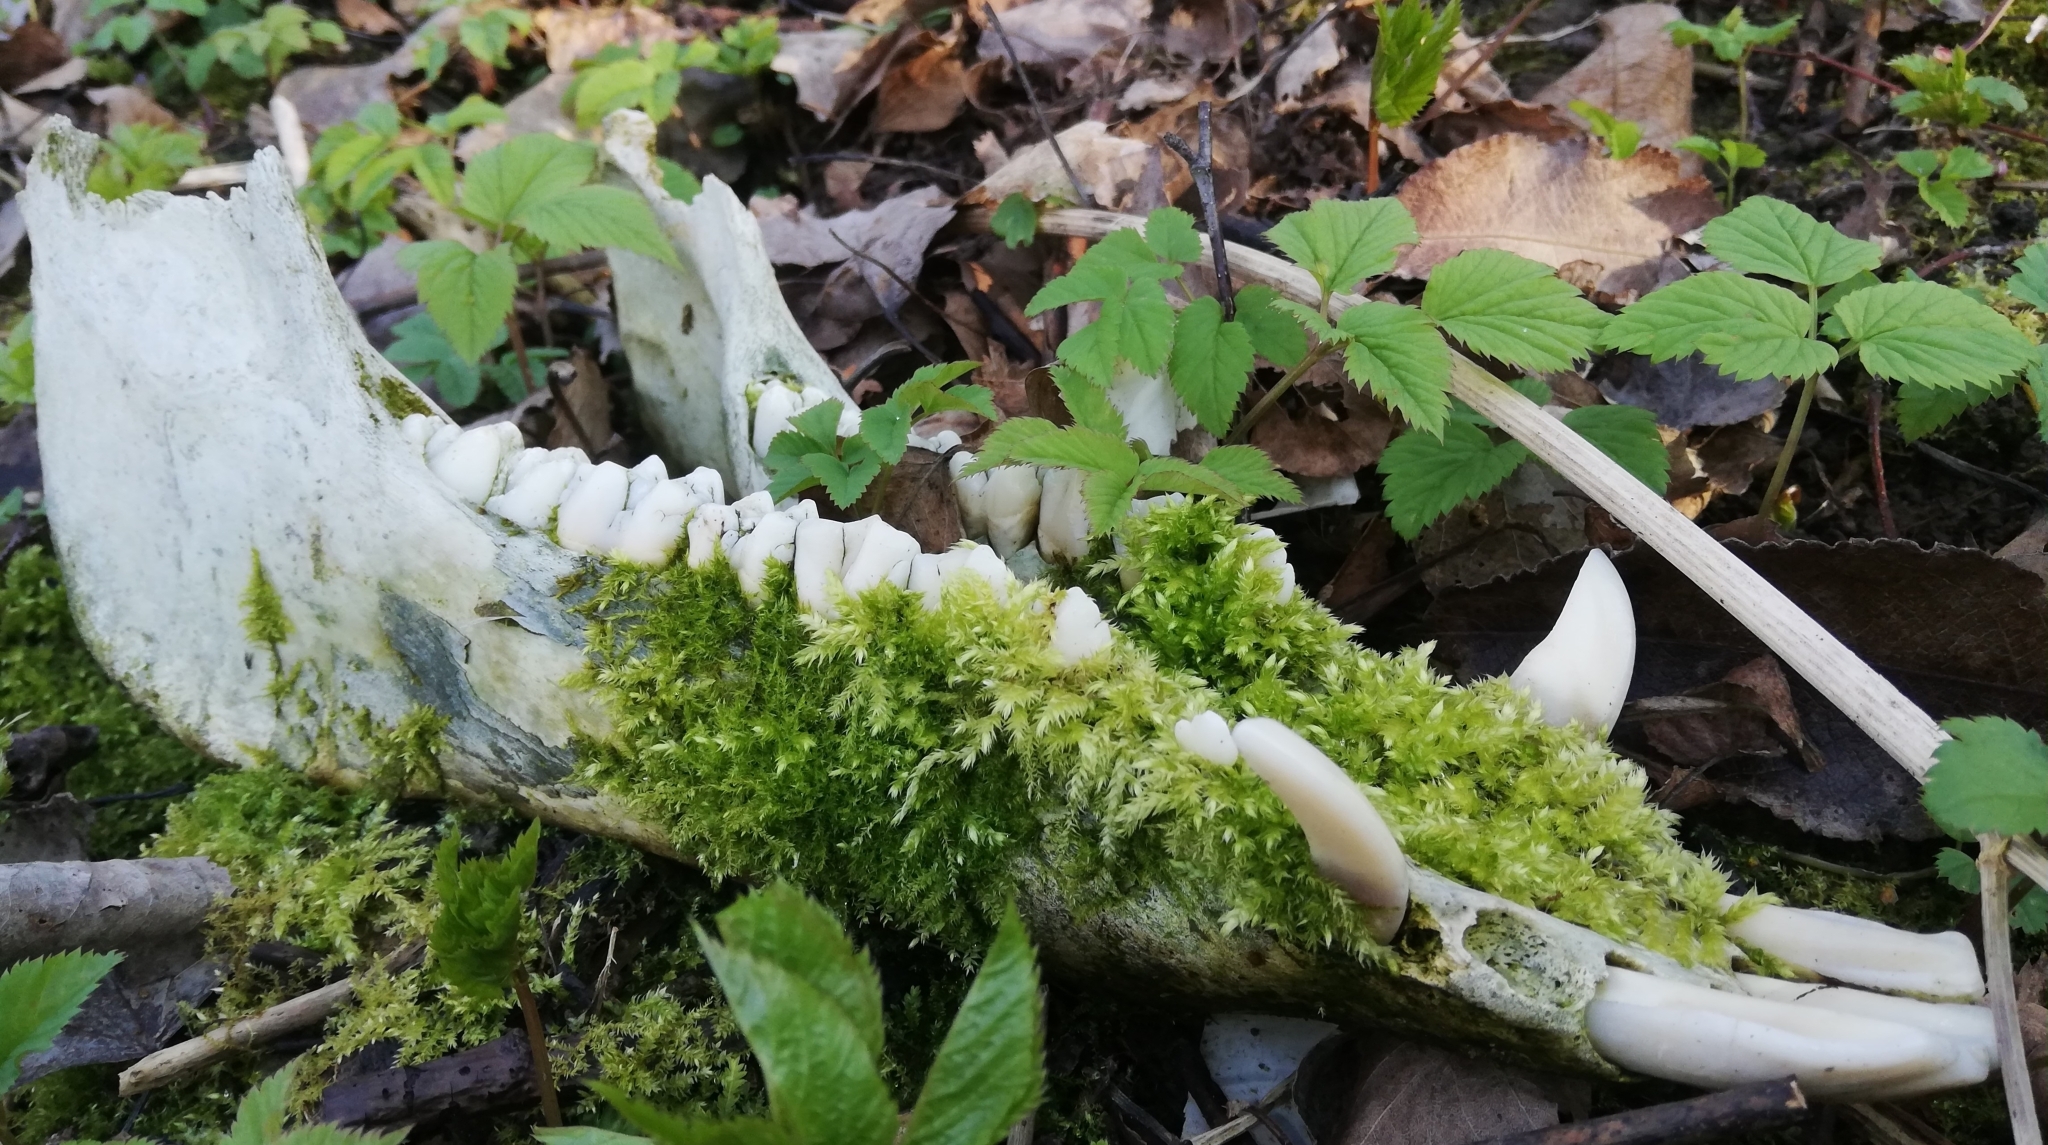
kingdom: Animalia
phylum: Chordata
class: Mammalia
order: Artiodactyla
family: Suidae
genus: Sus
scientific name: Sus scrofa
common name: Wild boar
